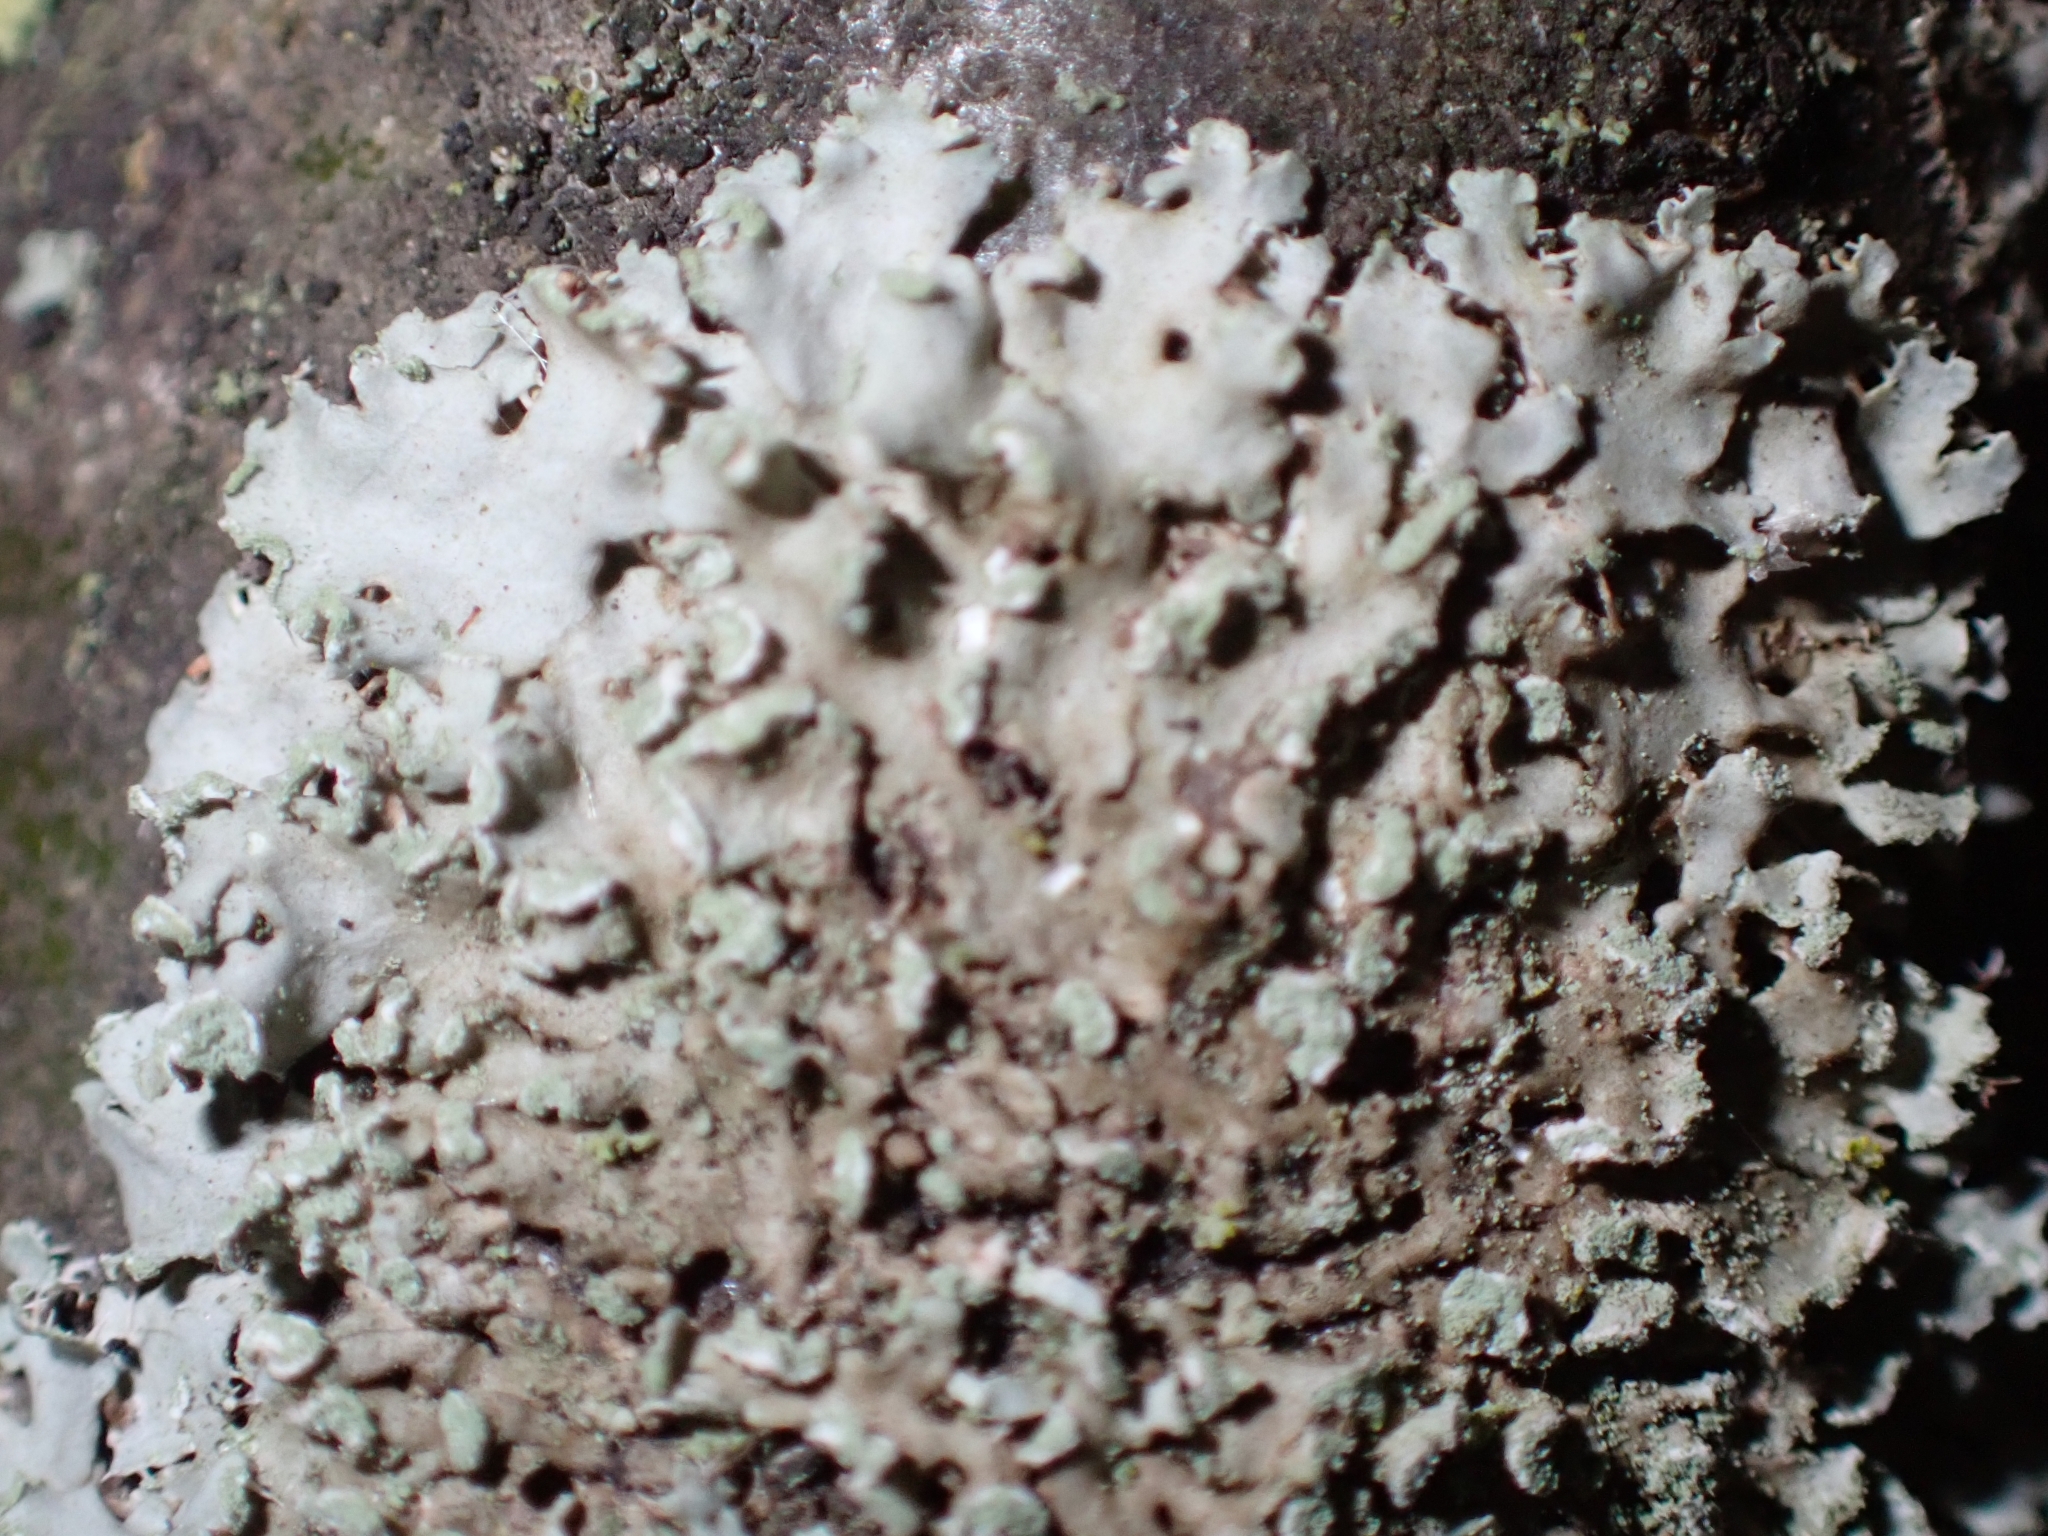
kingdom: Fungi
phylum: Ascomycota
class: Lecanoromycetes
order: Caliciales
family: Physciaceae
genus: Physciella
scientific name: Physciella chloantha
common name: Cryptic rosette lichen
